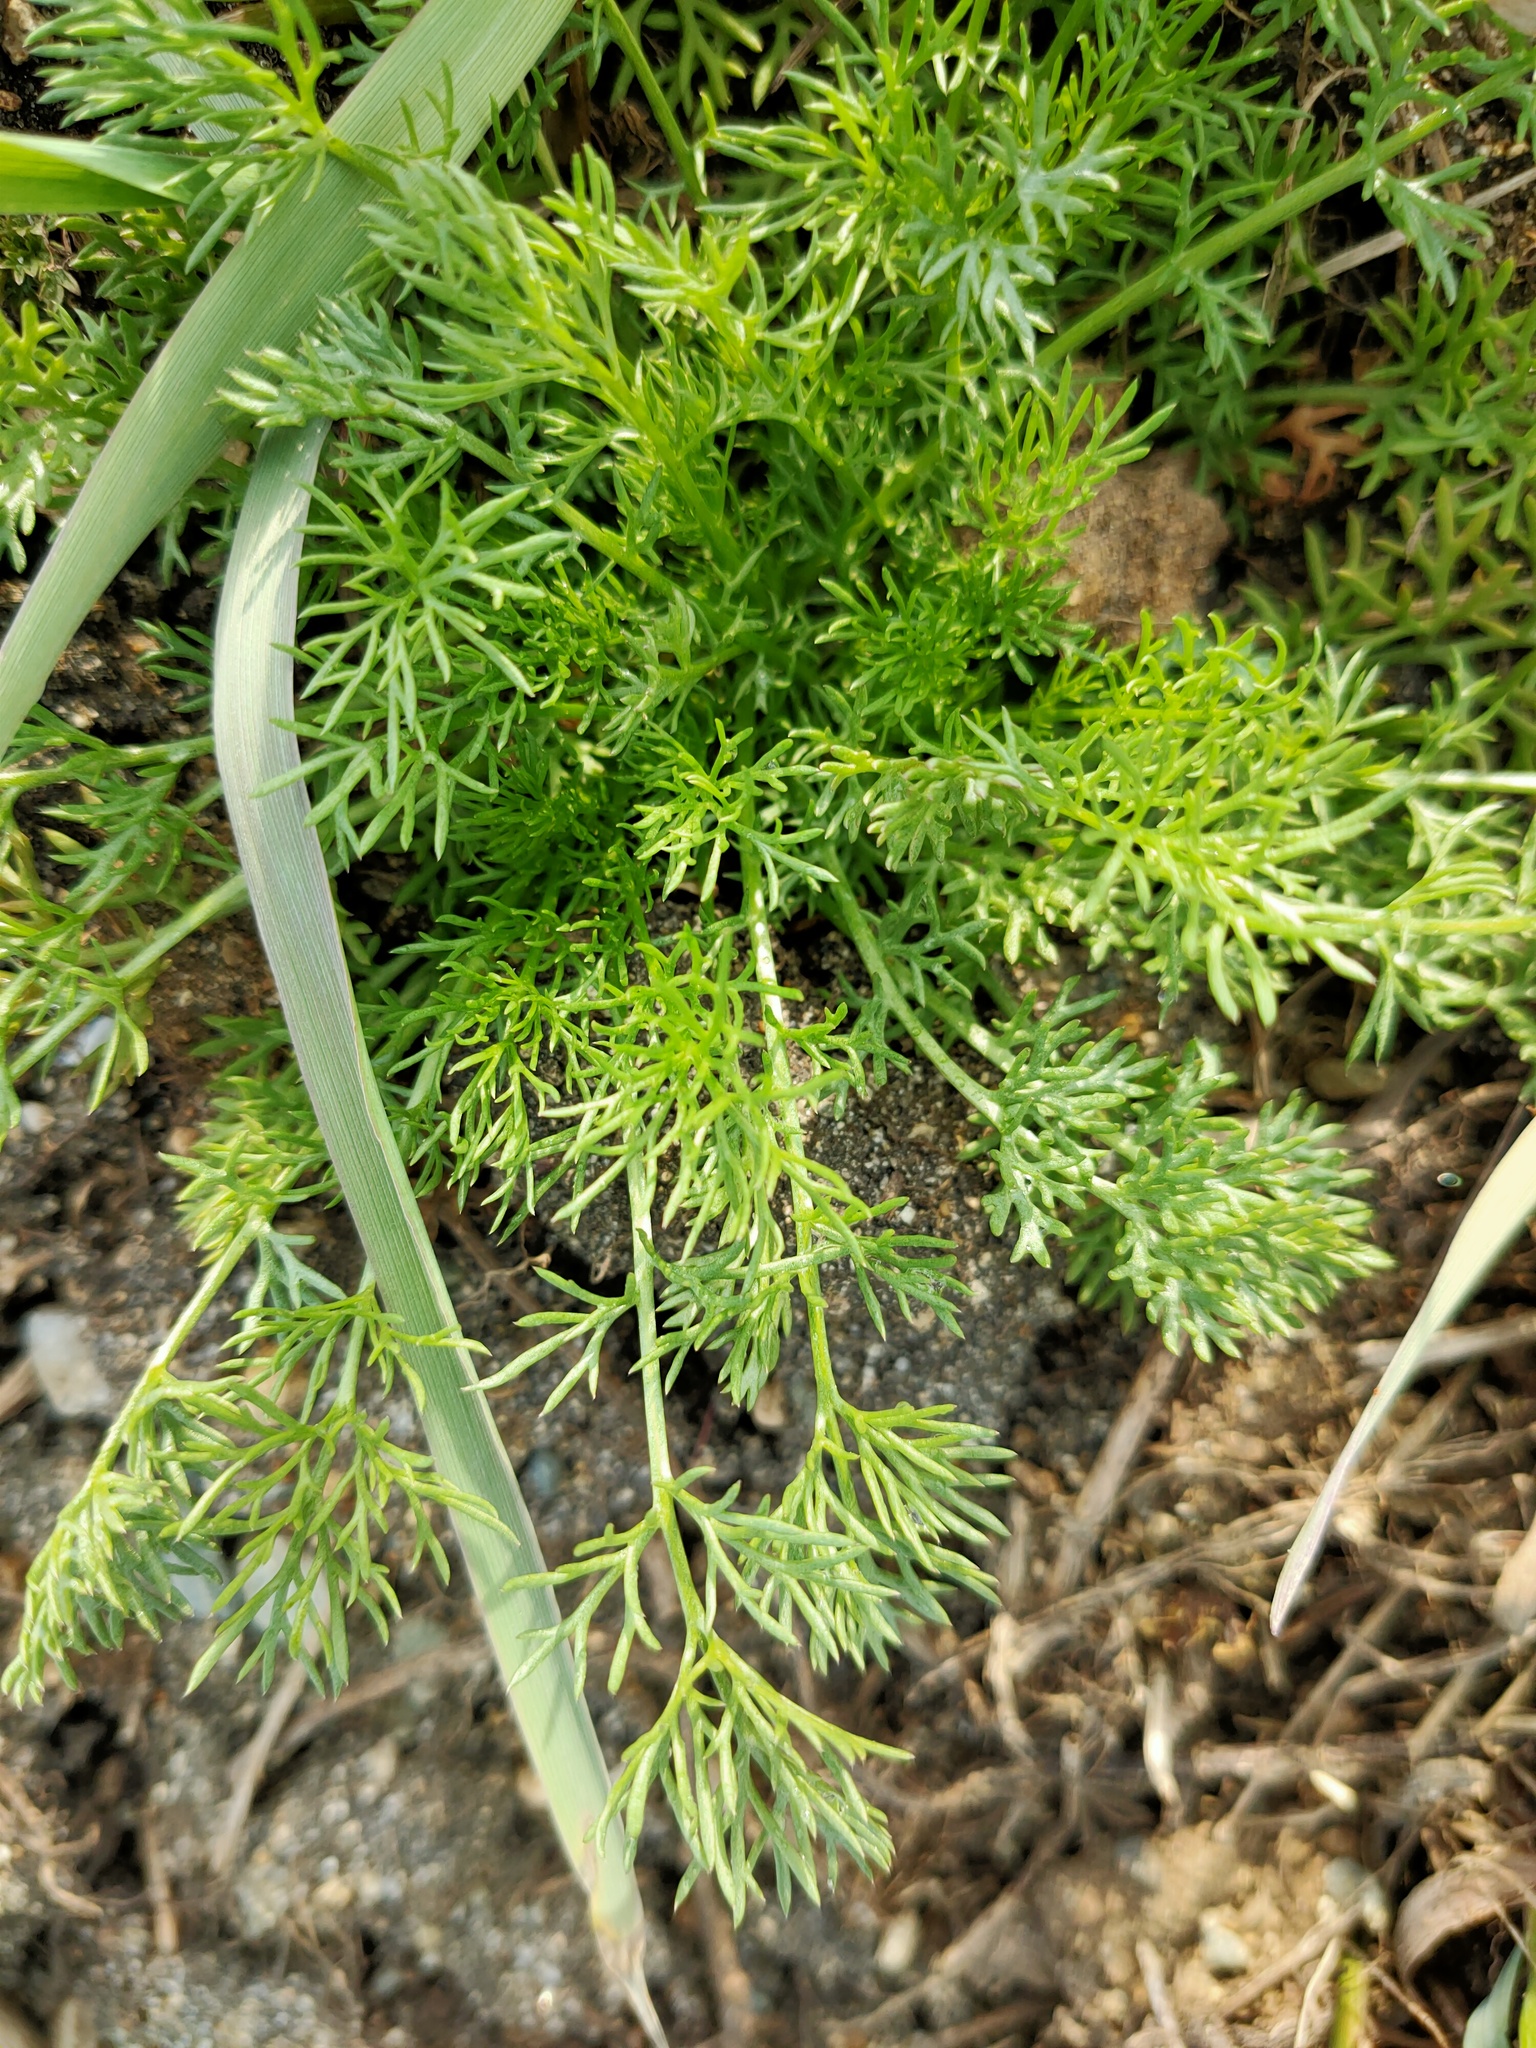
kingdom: Plantae
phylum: Tracheophyta
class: Magnoliopsida
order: Asterales
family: Asteraceae
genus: Tripleurospermum
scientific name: Tripleurospermum inodorum
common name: Scentless mayweed
